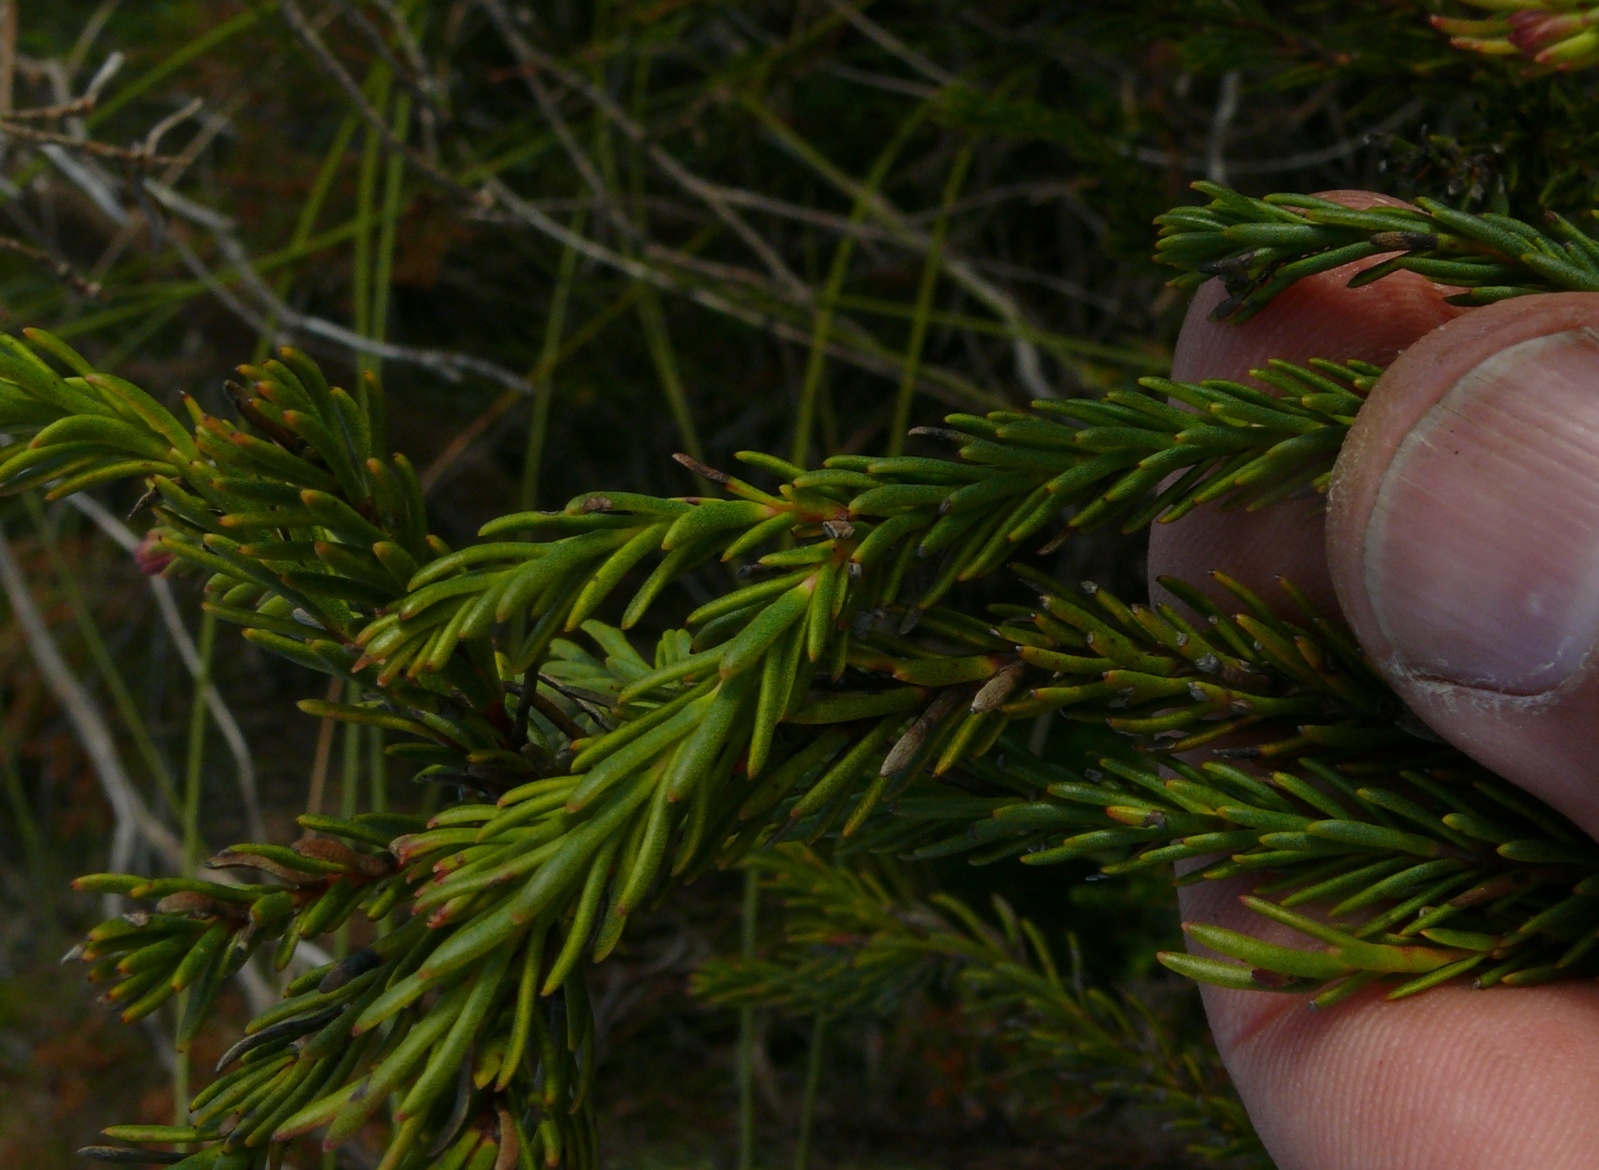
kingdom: Plantae
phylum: Tracheophyta
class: Magnoliopsida
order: Proteales
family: Proteaceae
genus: Protea
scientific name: Protea subulifolia
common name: Awl-leaf sugarbush
